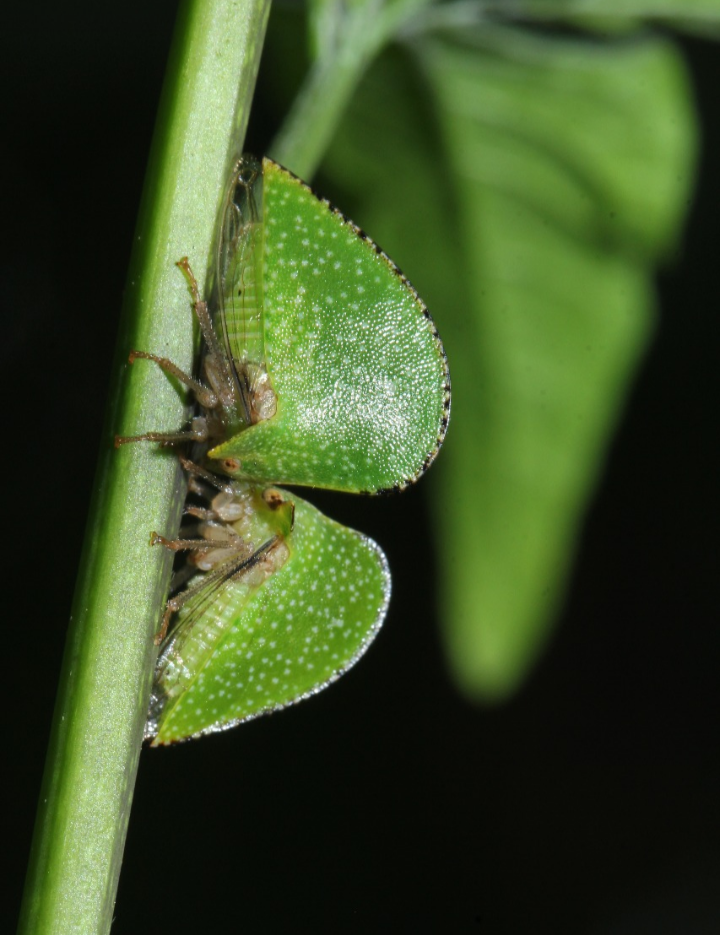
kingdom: Animalia
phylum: Arthropoda
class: Insecta
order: Hemiptera
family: Membracidae
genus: Antianthe
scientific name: Antianthe expansa
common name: Keeled tree hopper
